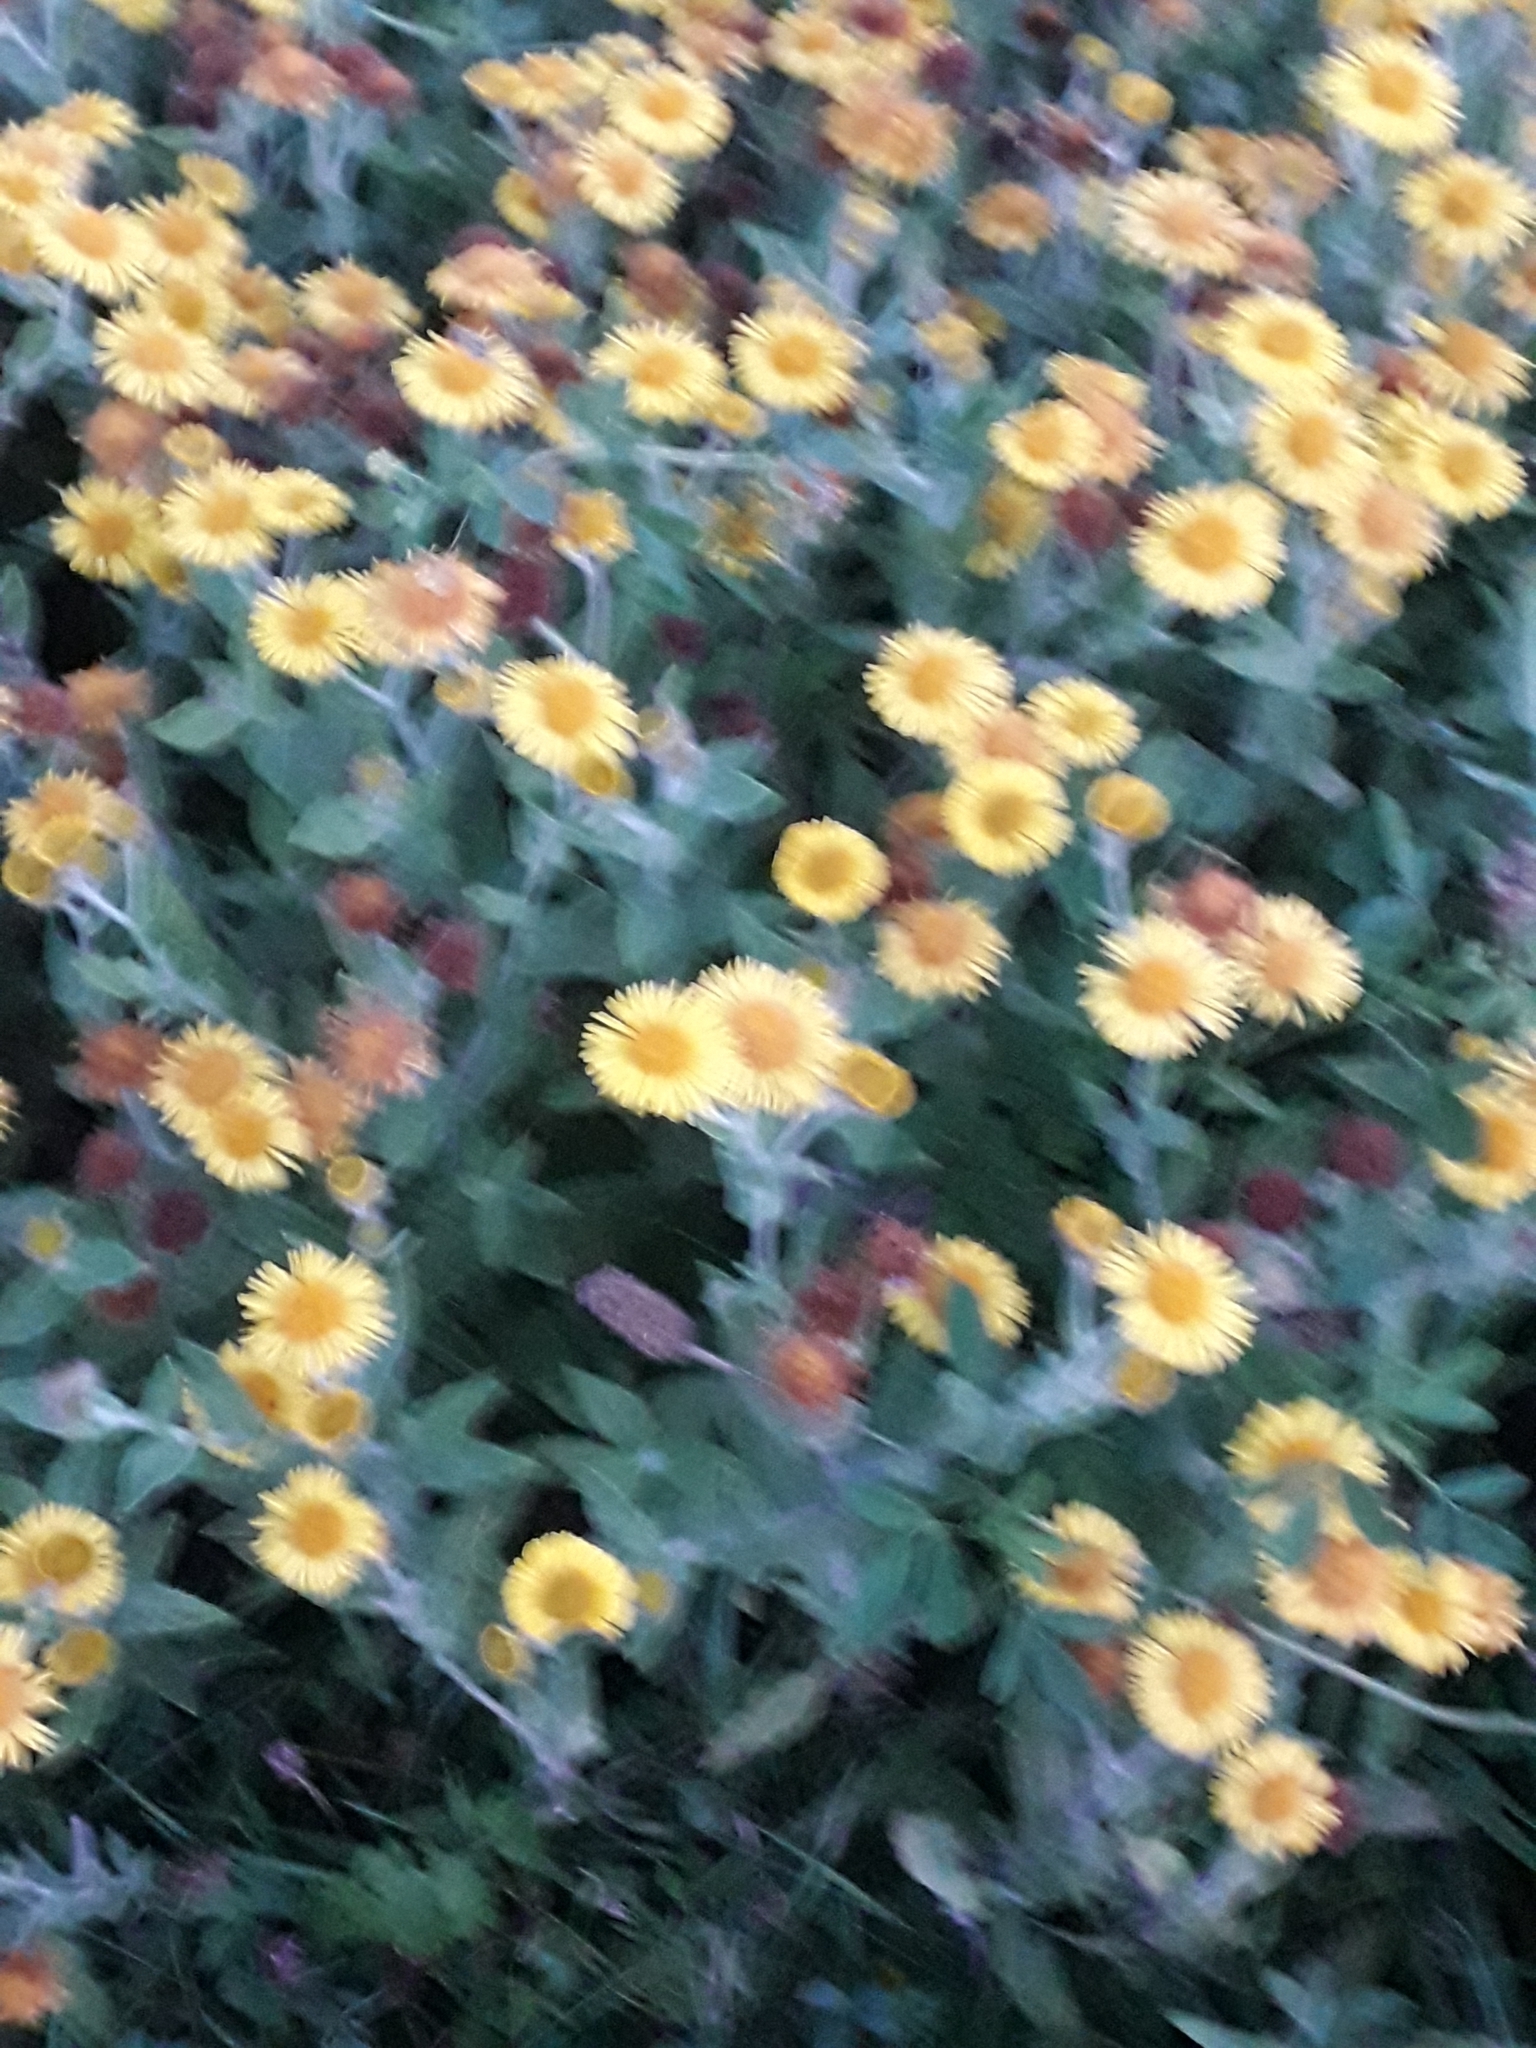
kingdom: Plantae
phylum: Tracheophyta
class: Magnoliopsida
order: Asterales
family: Asteraceae
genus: Pulicaria
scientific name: Pulicaria dysenterica
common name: Common fleabane
